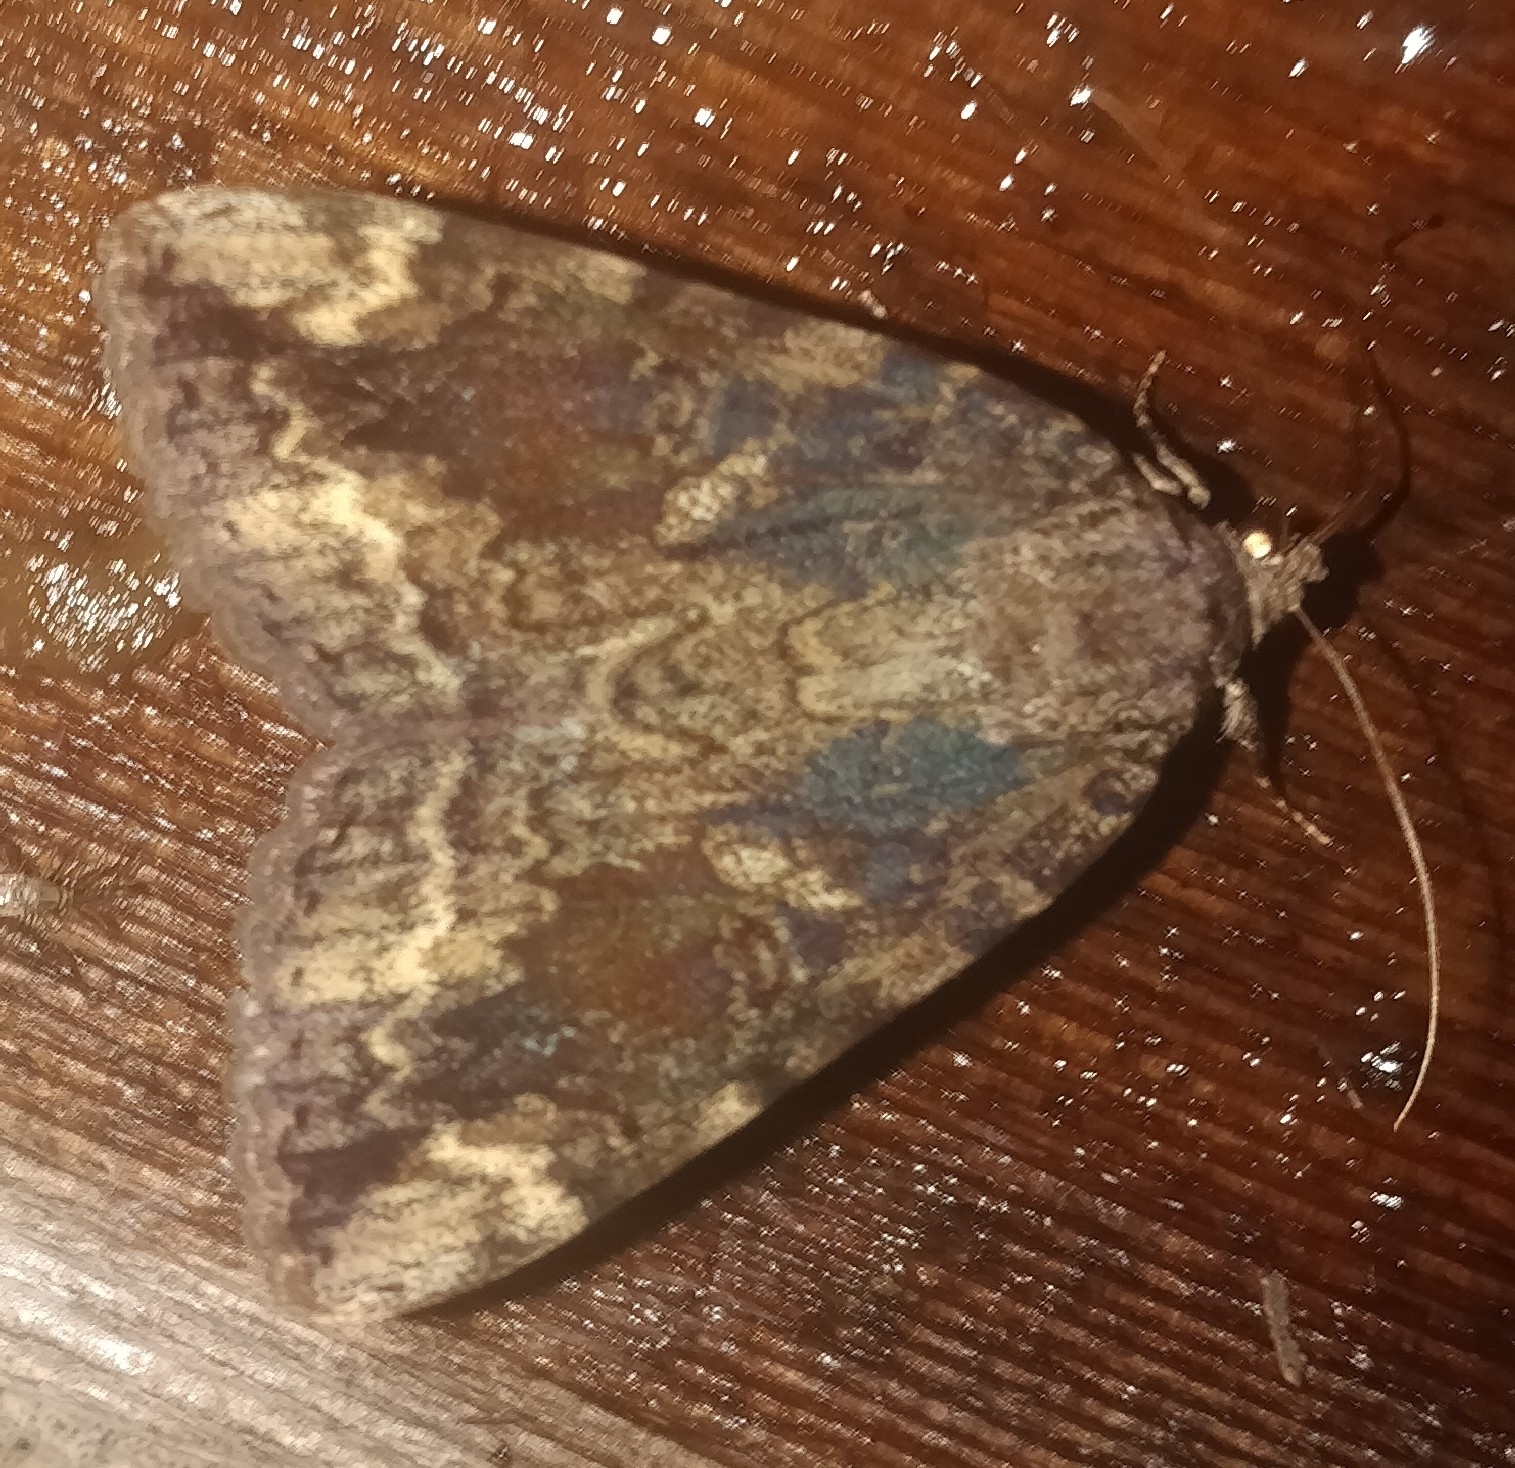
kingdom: Animalia
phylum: Arthropoda
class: Insecta
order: Lepidoptera
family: Erebidae
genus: Catocala
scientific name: Catocala innubens
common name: Betrothed underwing
